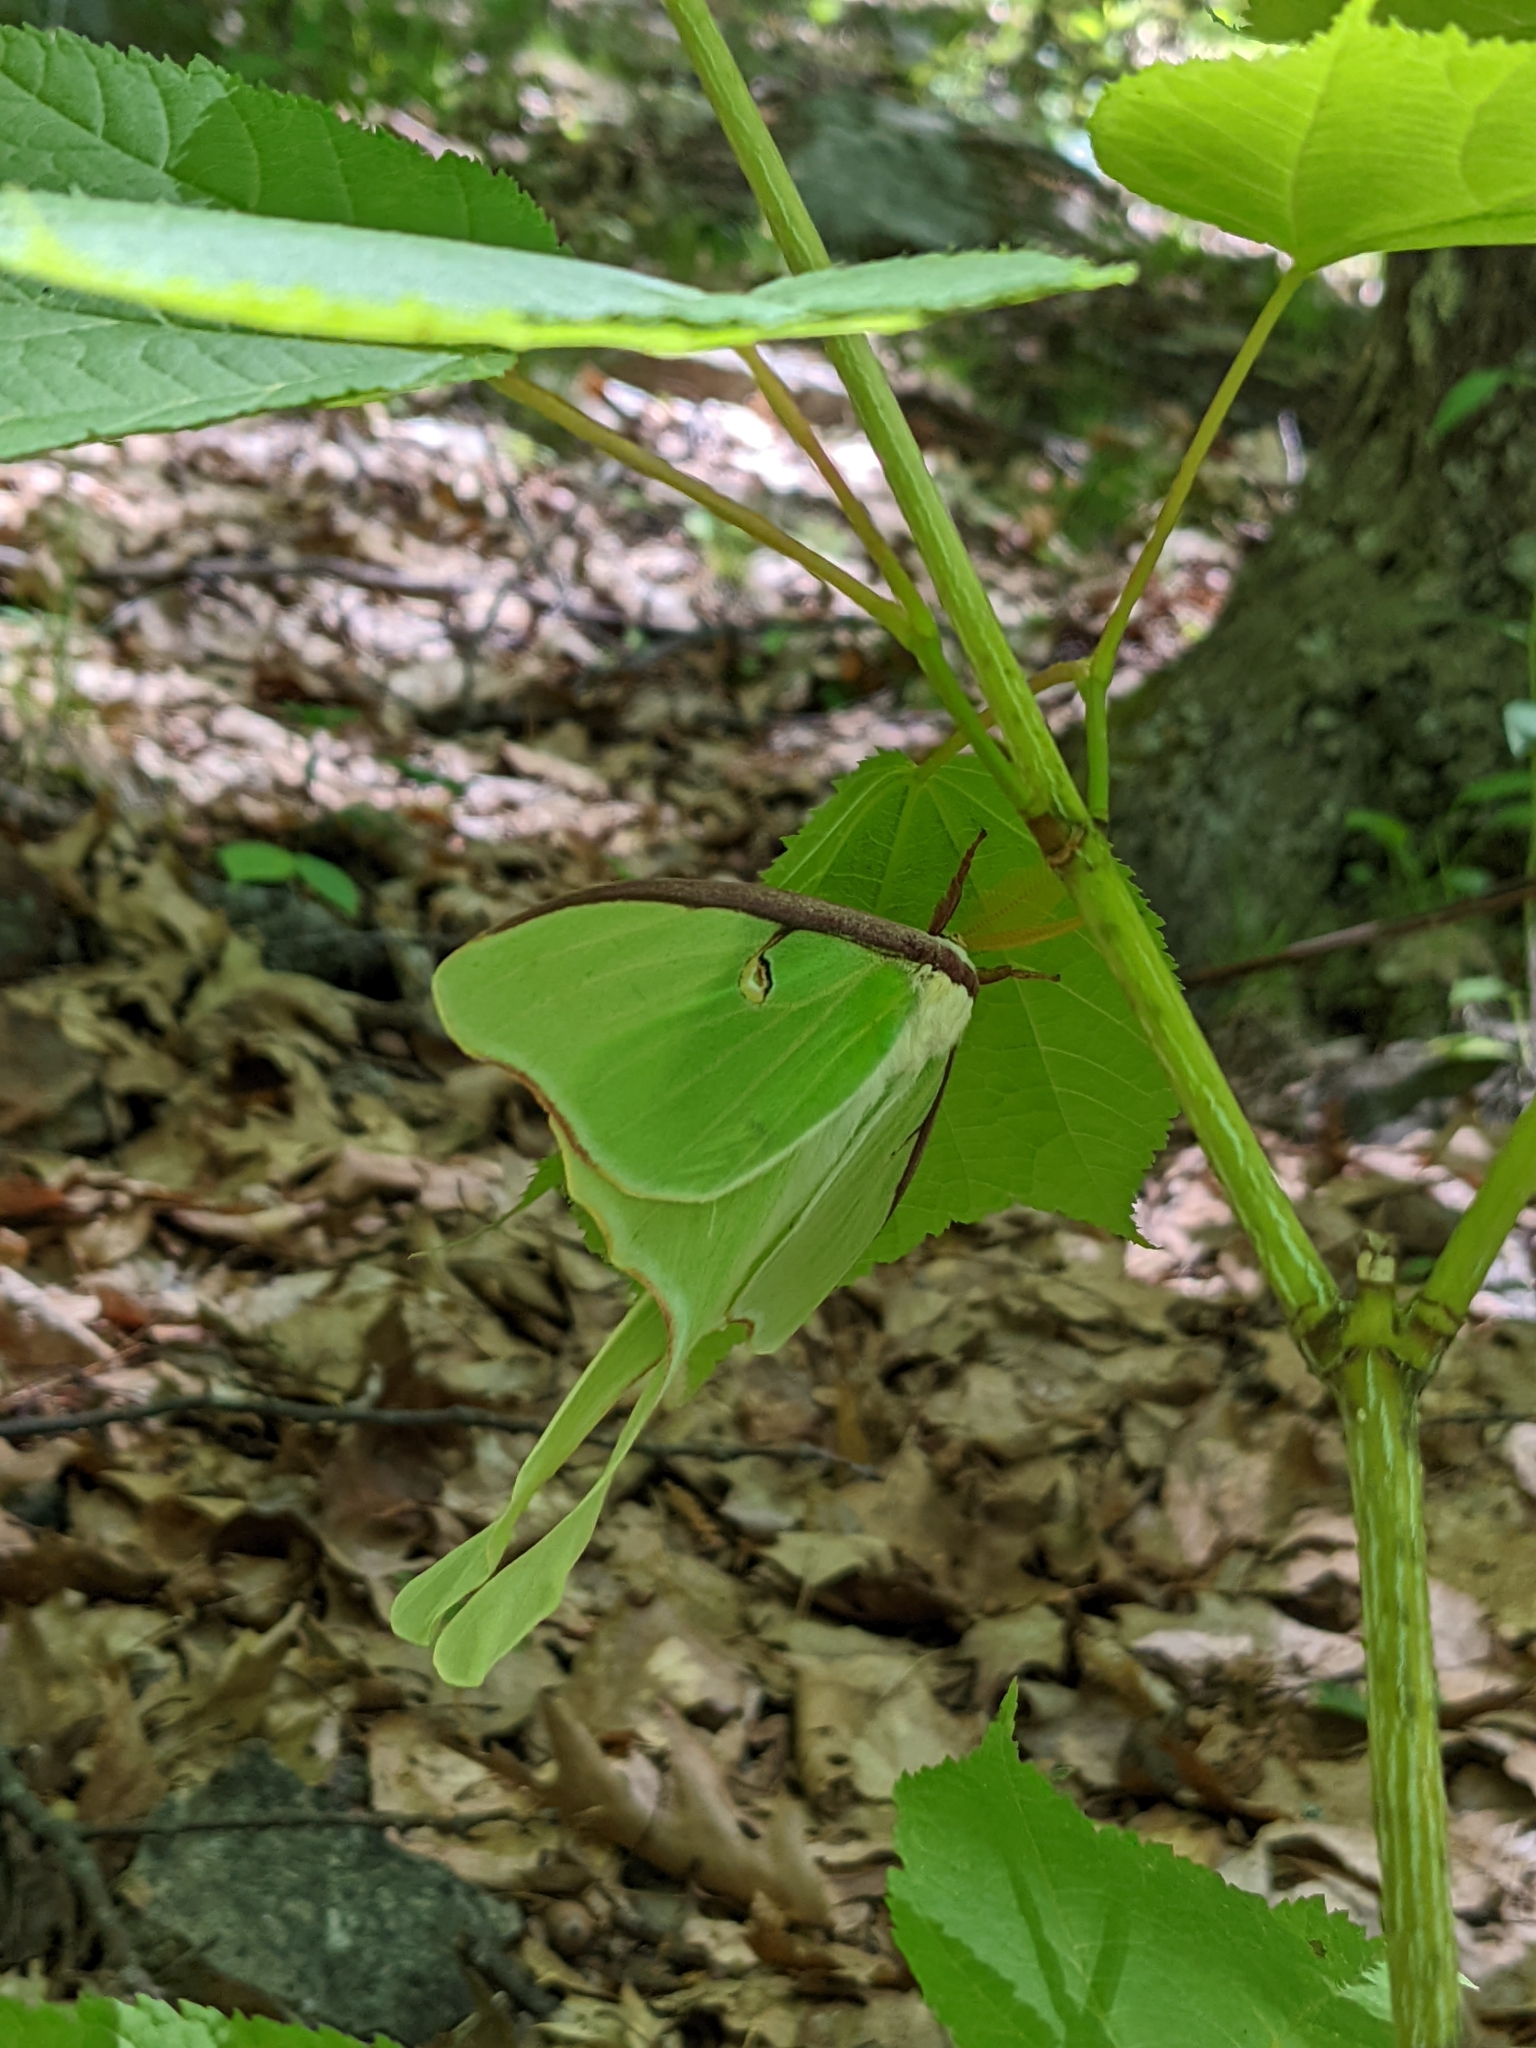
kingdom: Animalia
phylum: Arthropoda
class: Insecta
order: Lepidoptera
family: Saturniidae
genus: Actias
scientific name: Actias luna
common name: Luna moth
